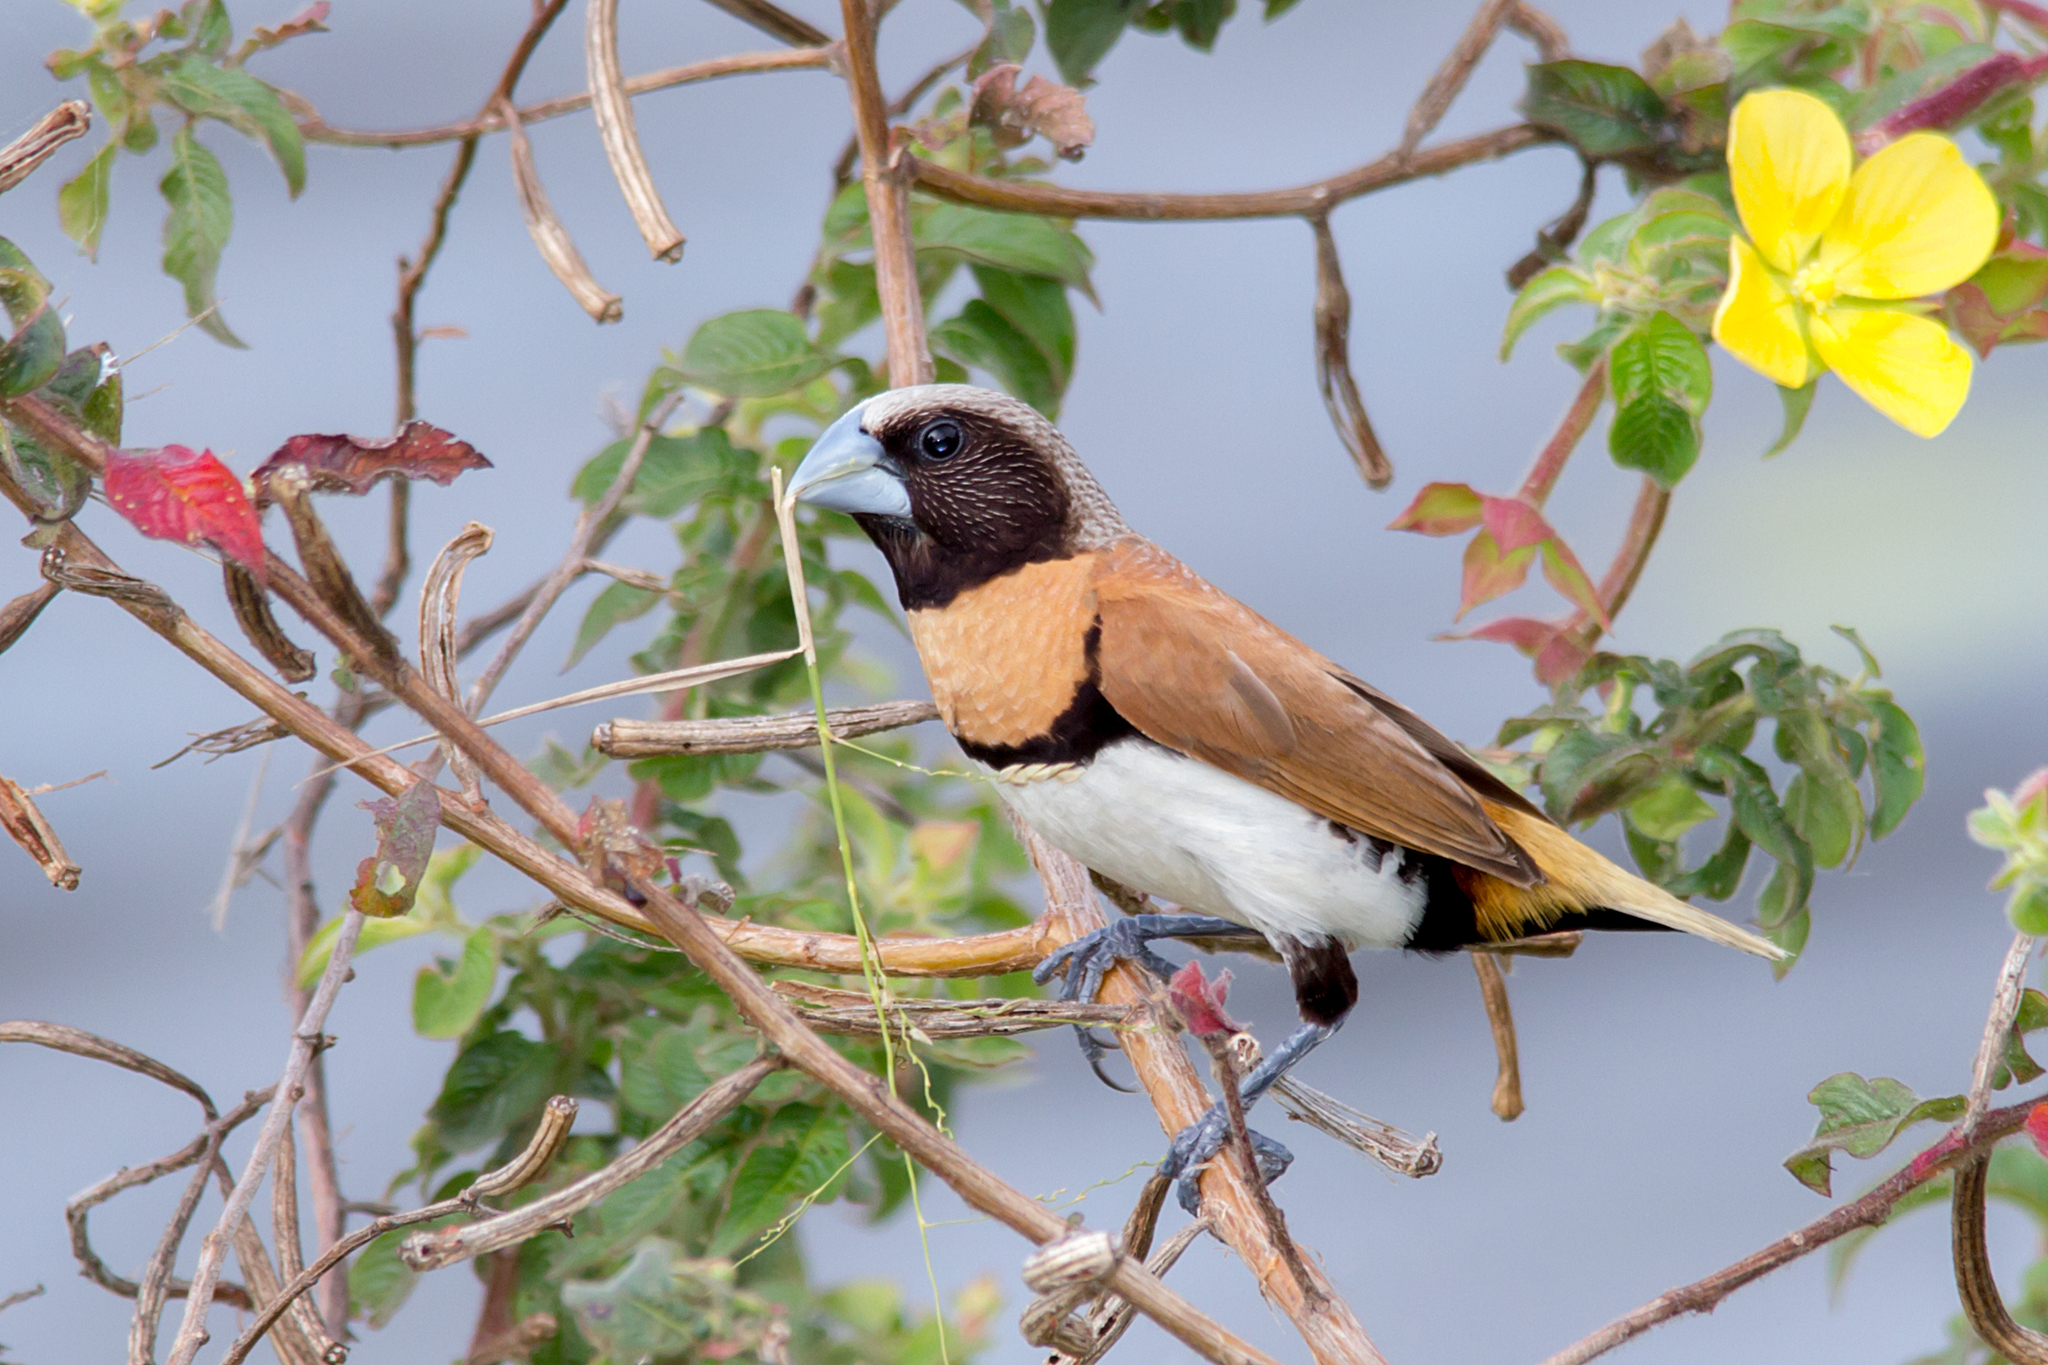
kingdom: Animalia
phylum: Chordata
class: Aves
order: Passeriformes
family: Estrildidae
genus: Lonchura
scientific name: Lonchura castaneothorax
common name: Chestnut-breasted mannikin
